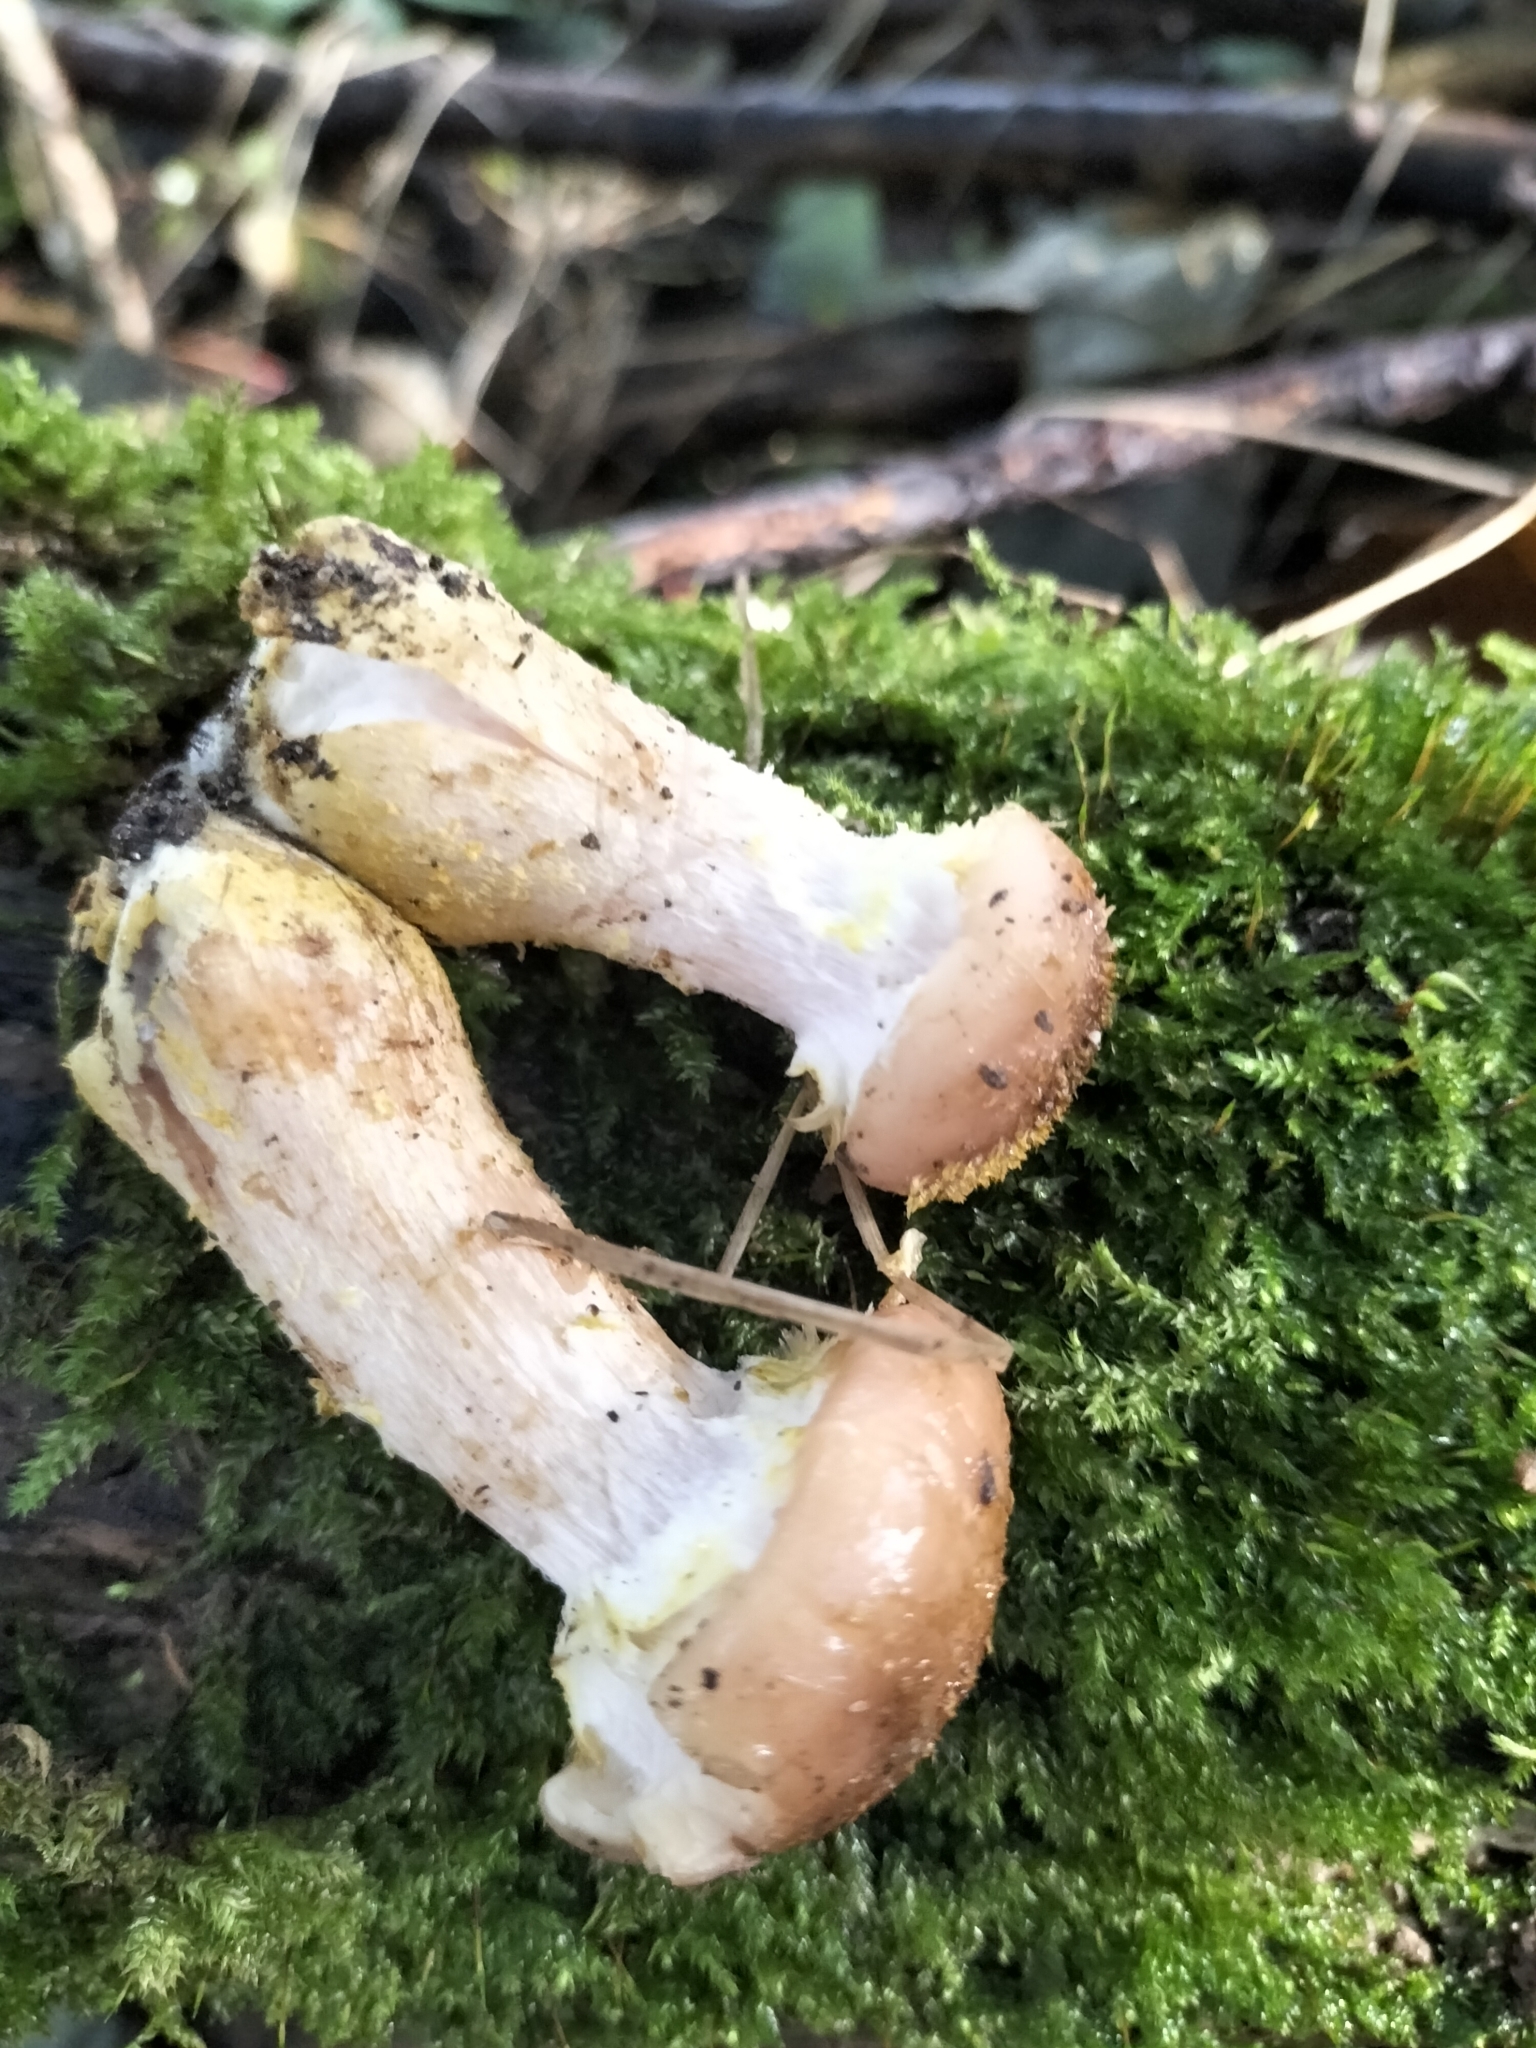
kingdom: Fungi
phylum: Basidiomycota
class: Agaricomycetes
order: Agaricales
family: Physalacriaceae
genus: Armillaria
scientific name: Armillaria gallica
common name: Bulbous honey fungus
